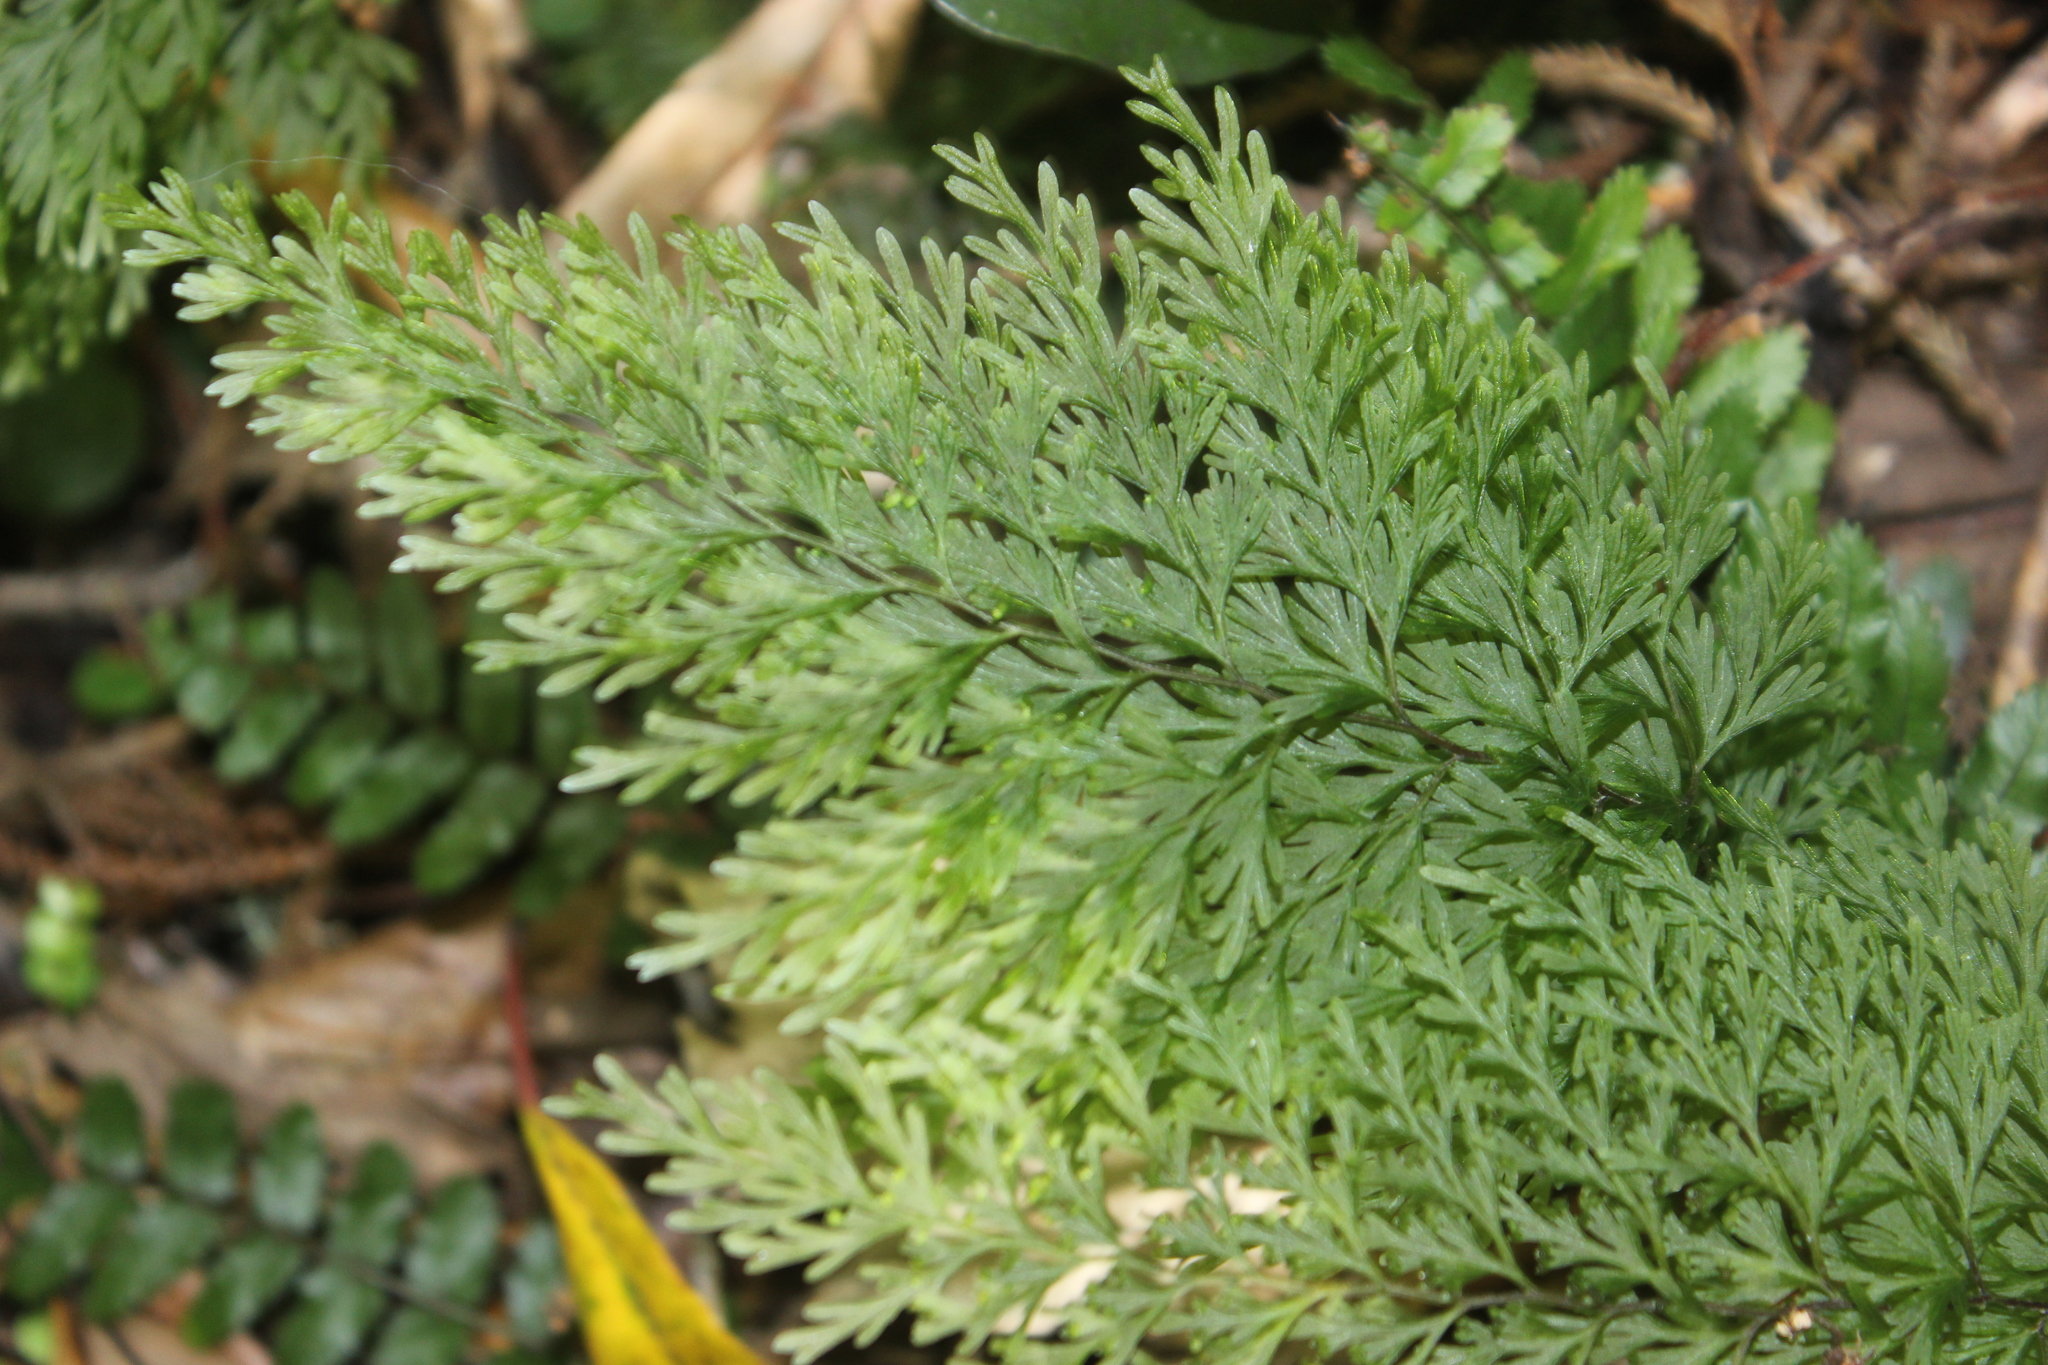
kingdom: Plantae
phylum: Tracheophyta
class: Polypodiopsida
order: Hymenophyllales
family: Hymenophyllaceae
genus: Hymenophyllum
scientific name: Hymenophyllum demissum
